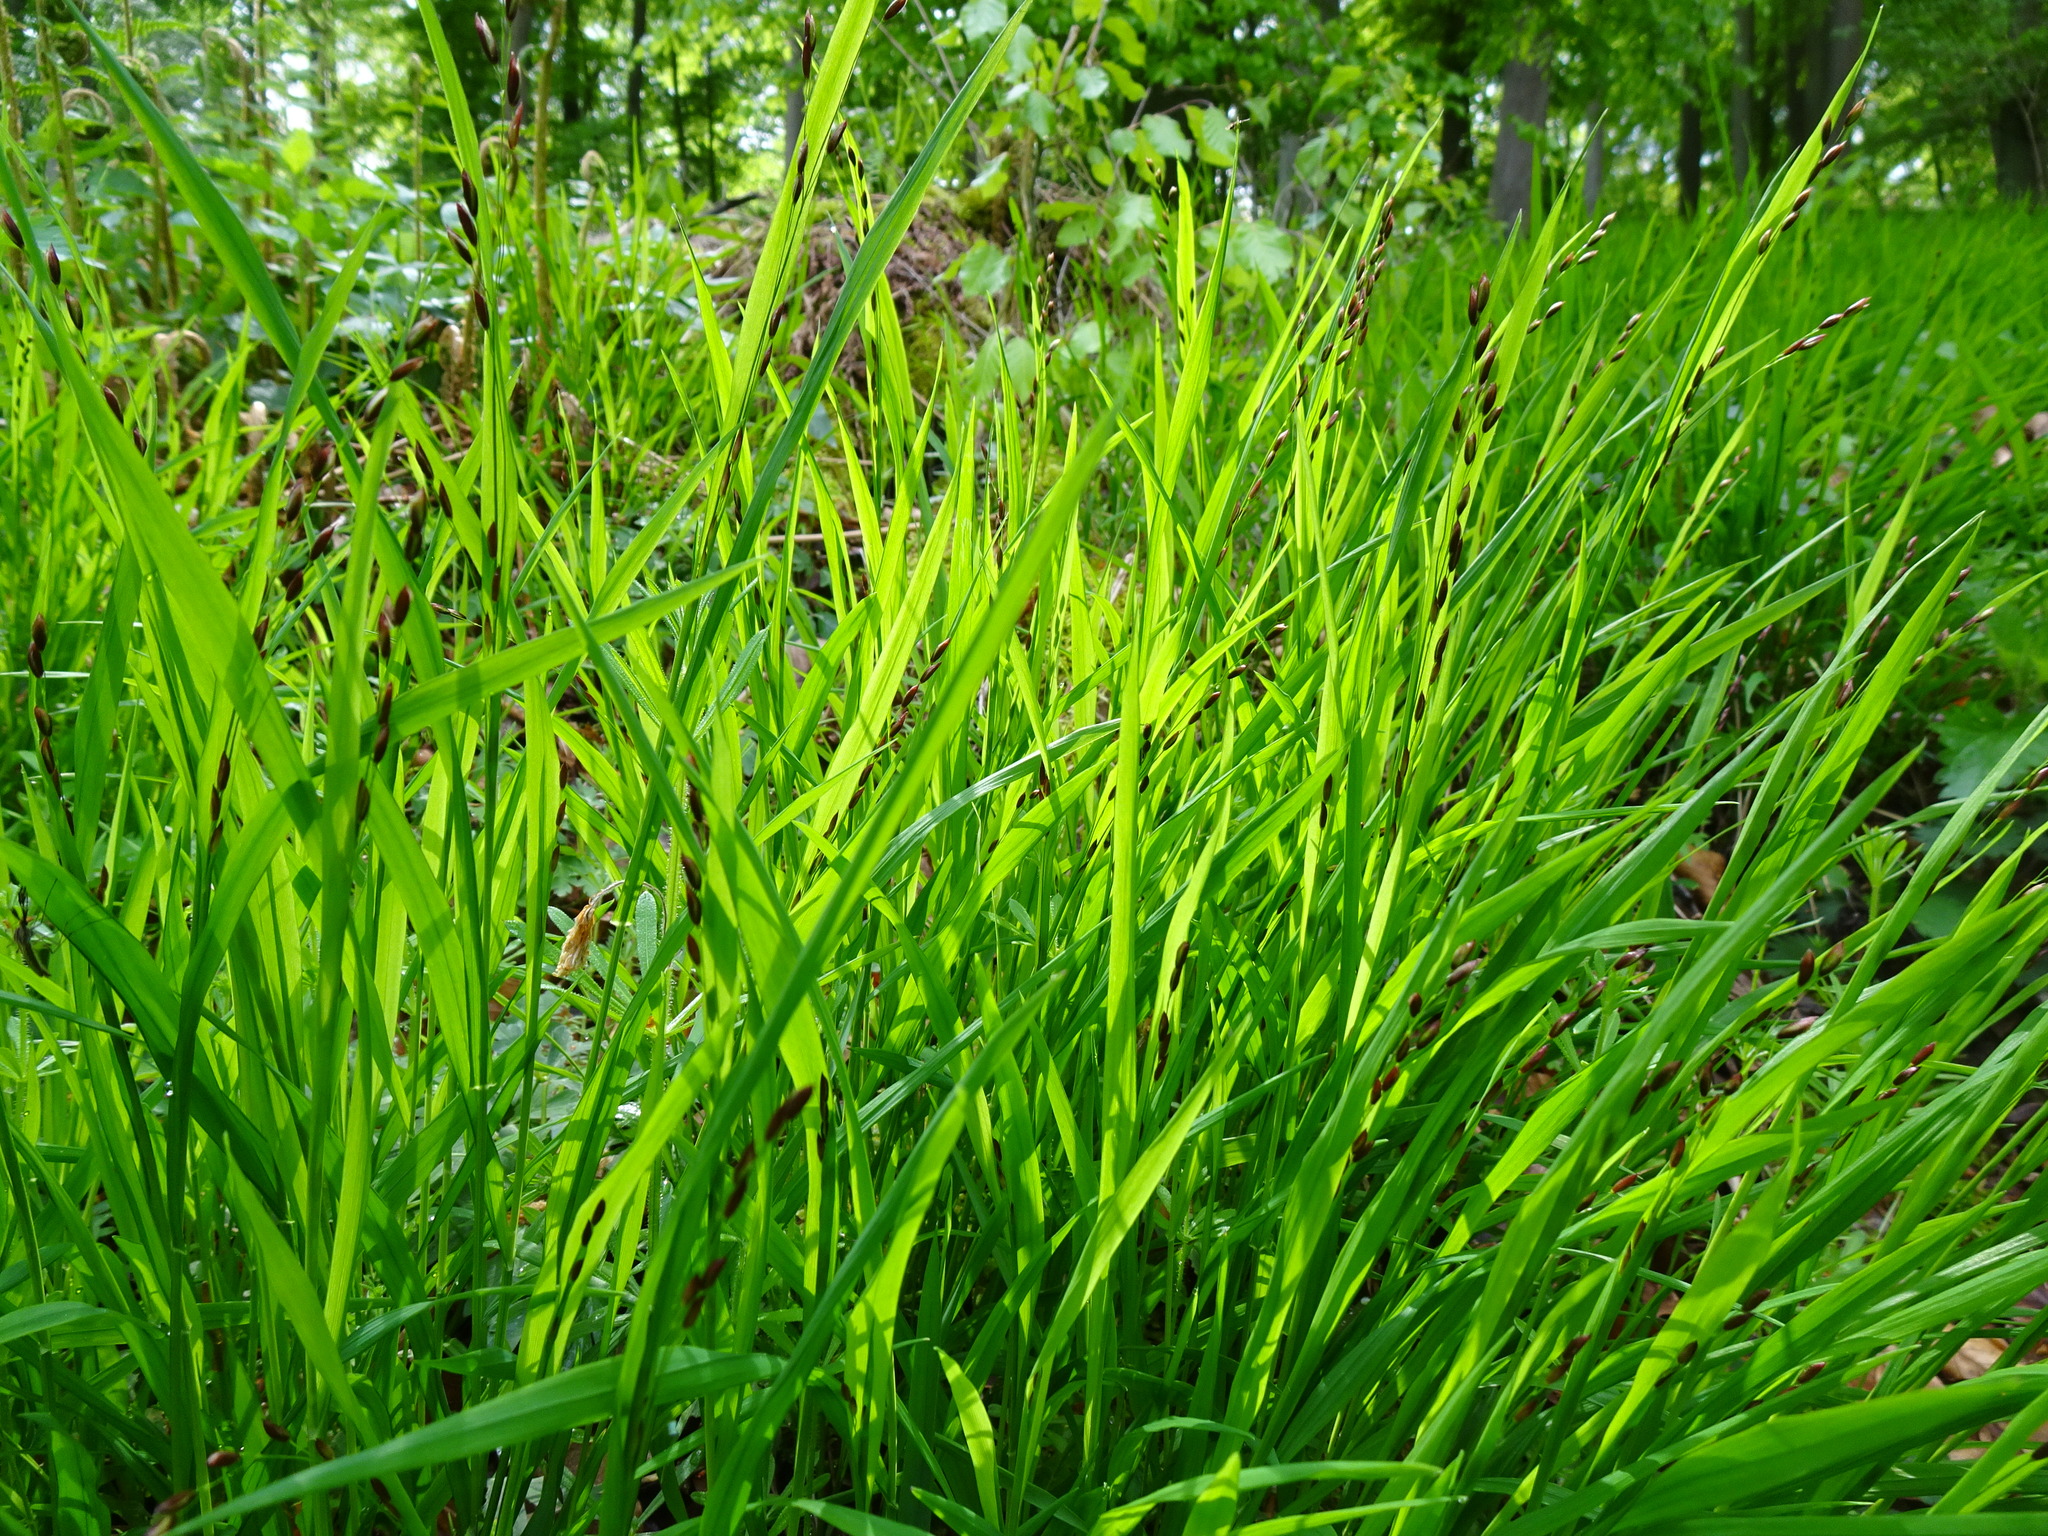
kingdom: Plantae
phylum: Tracheophyta
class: Liliopsida
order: Poales
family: Poaceae
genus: Melica
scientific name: Melica uniflora
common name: Wood melick
